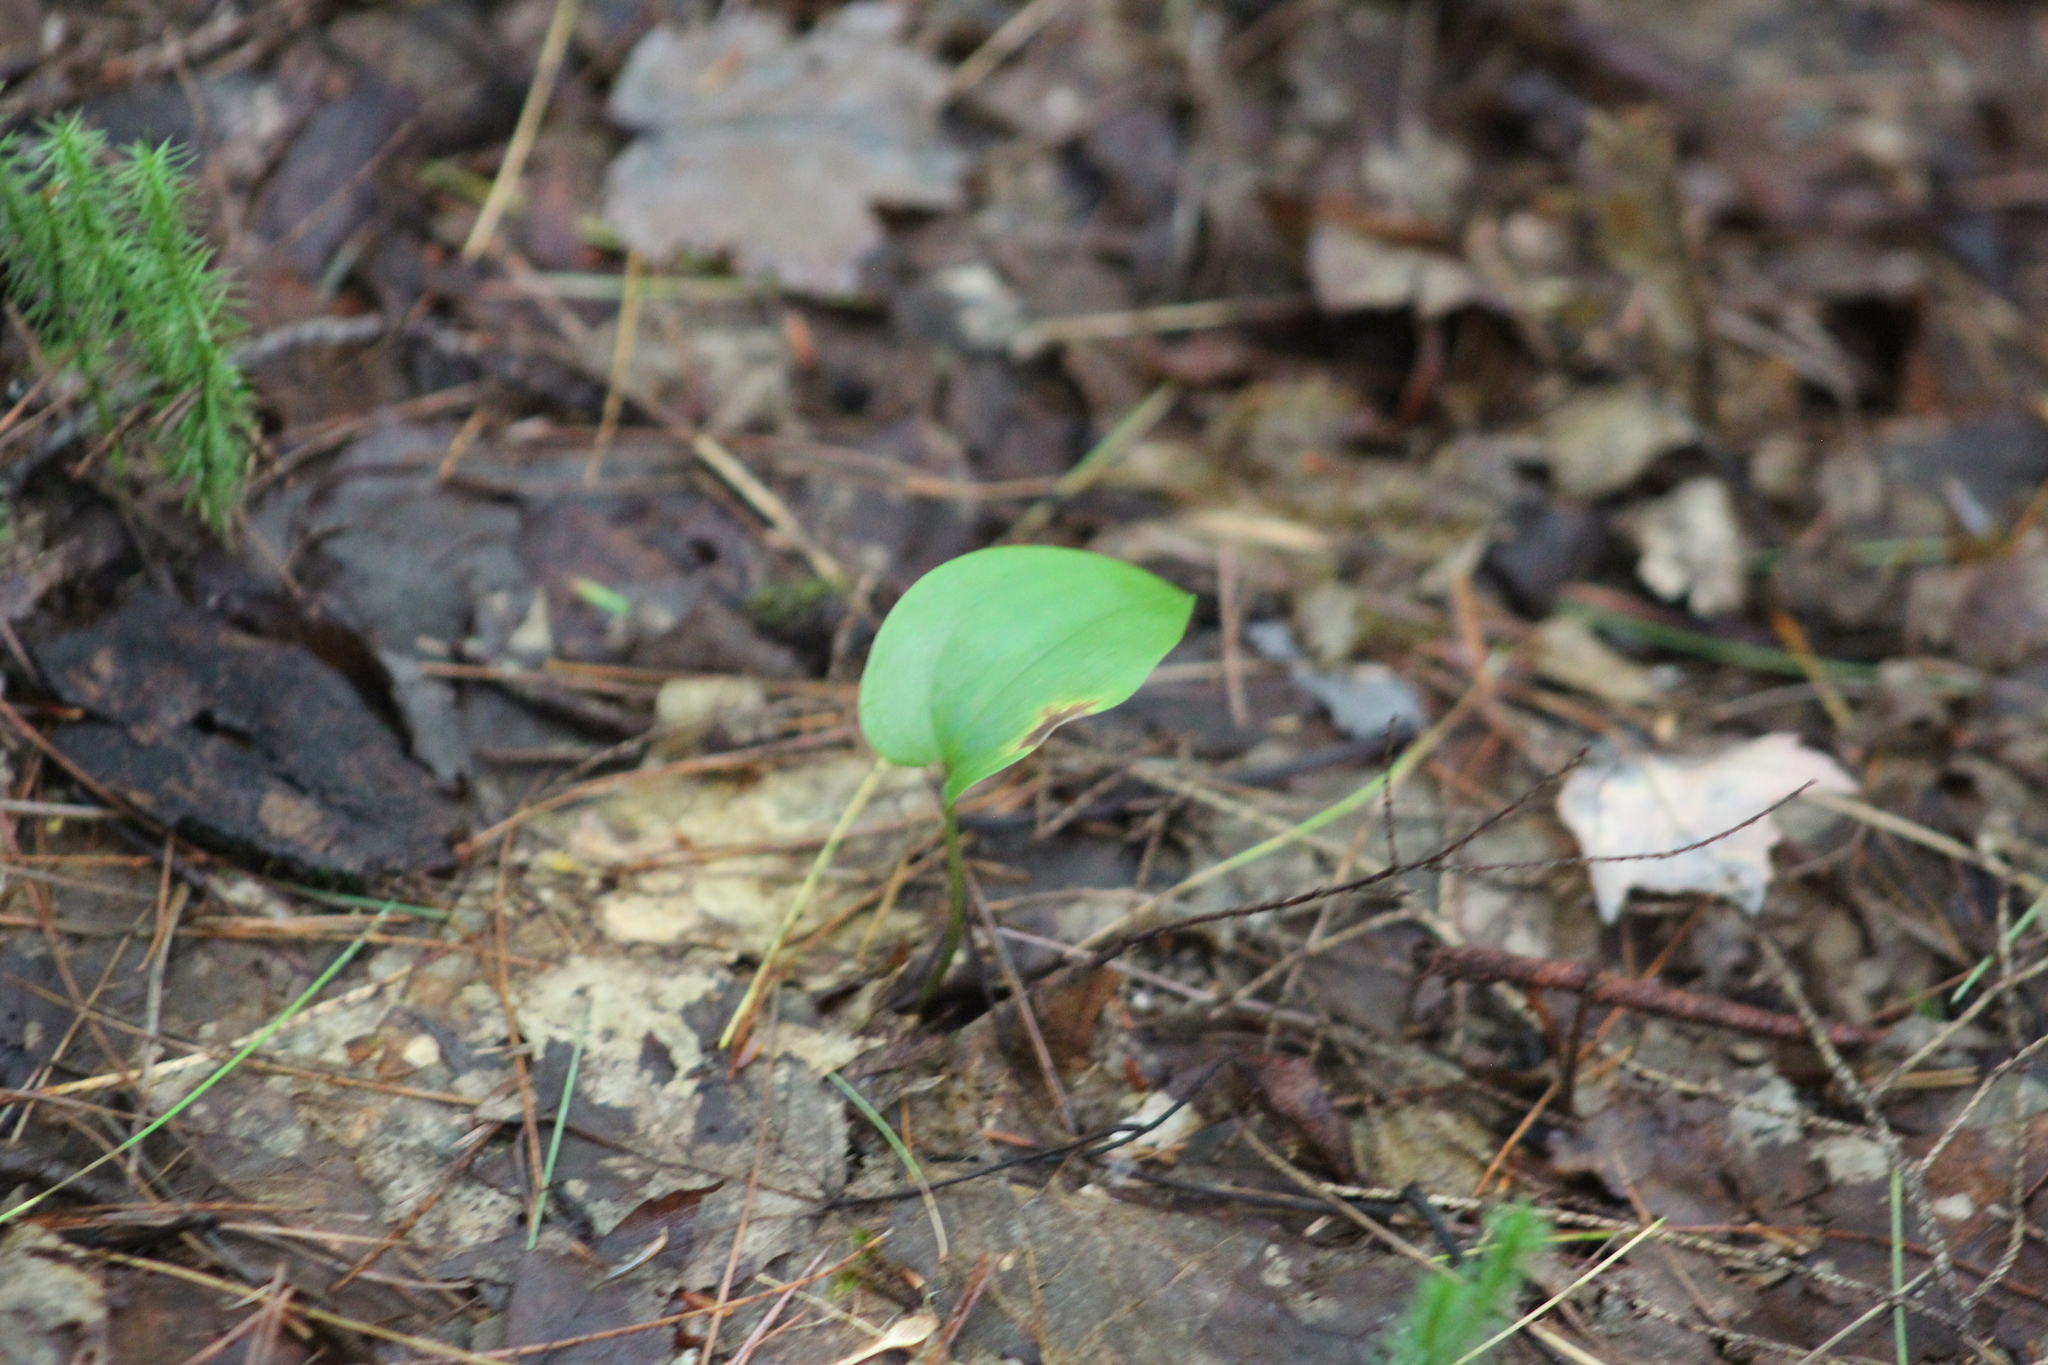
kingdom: Plantae
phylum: Tracheophyta
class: Liliopsida
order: Asparagales
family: Asparagaceae
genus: Maianthemum
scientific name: Maianthemum canadense
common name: False lily-of-the-valley
